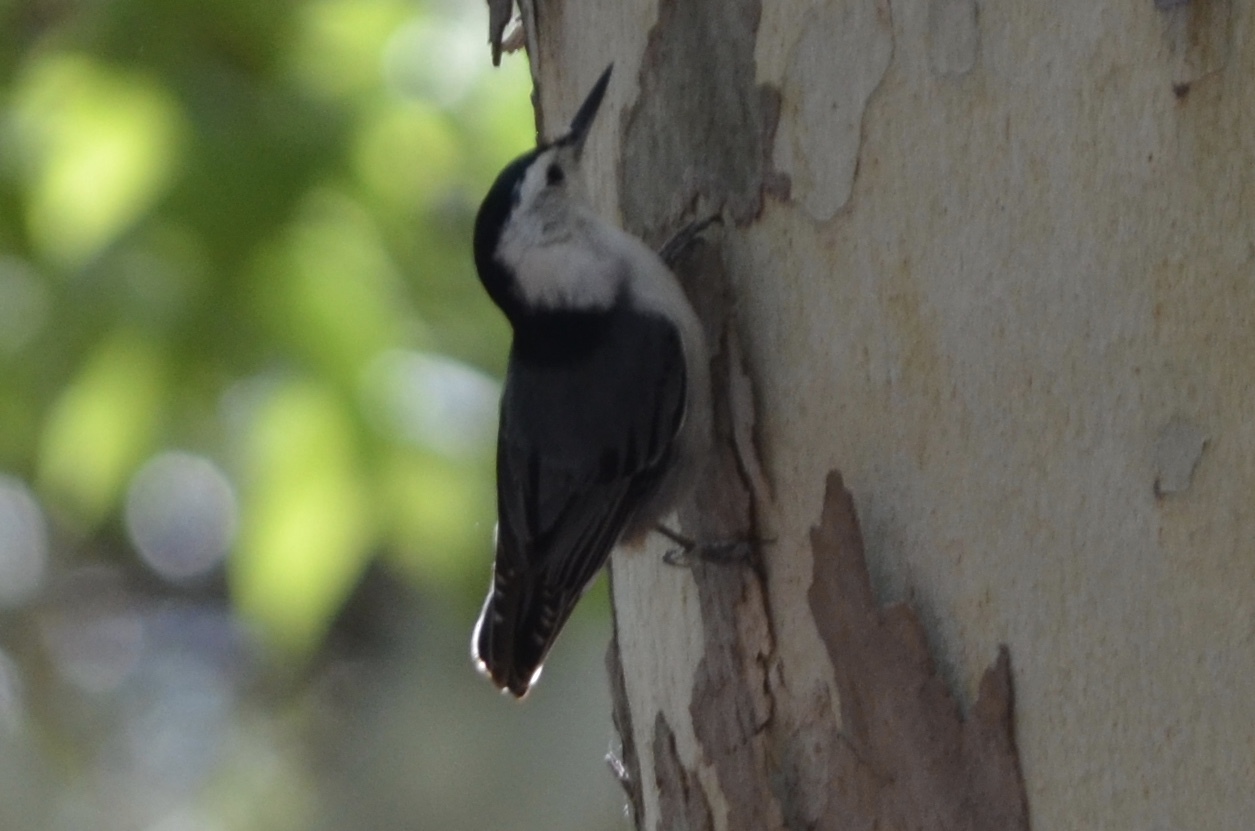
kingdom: Animalia
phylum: Chordata
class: Aves
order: Passeriformes
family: Sittidae
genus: Sitta
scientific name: Sitta carolinensis
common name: White-breasted nuthatch
